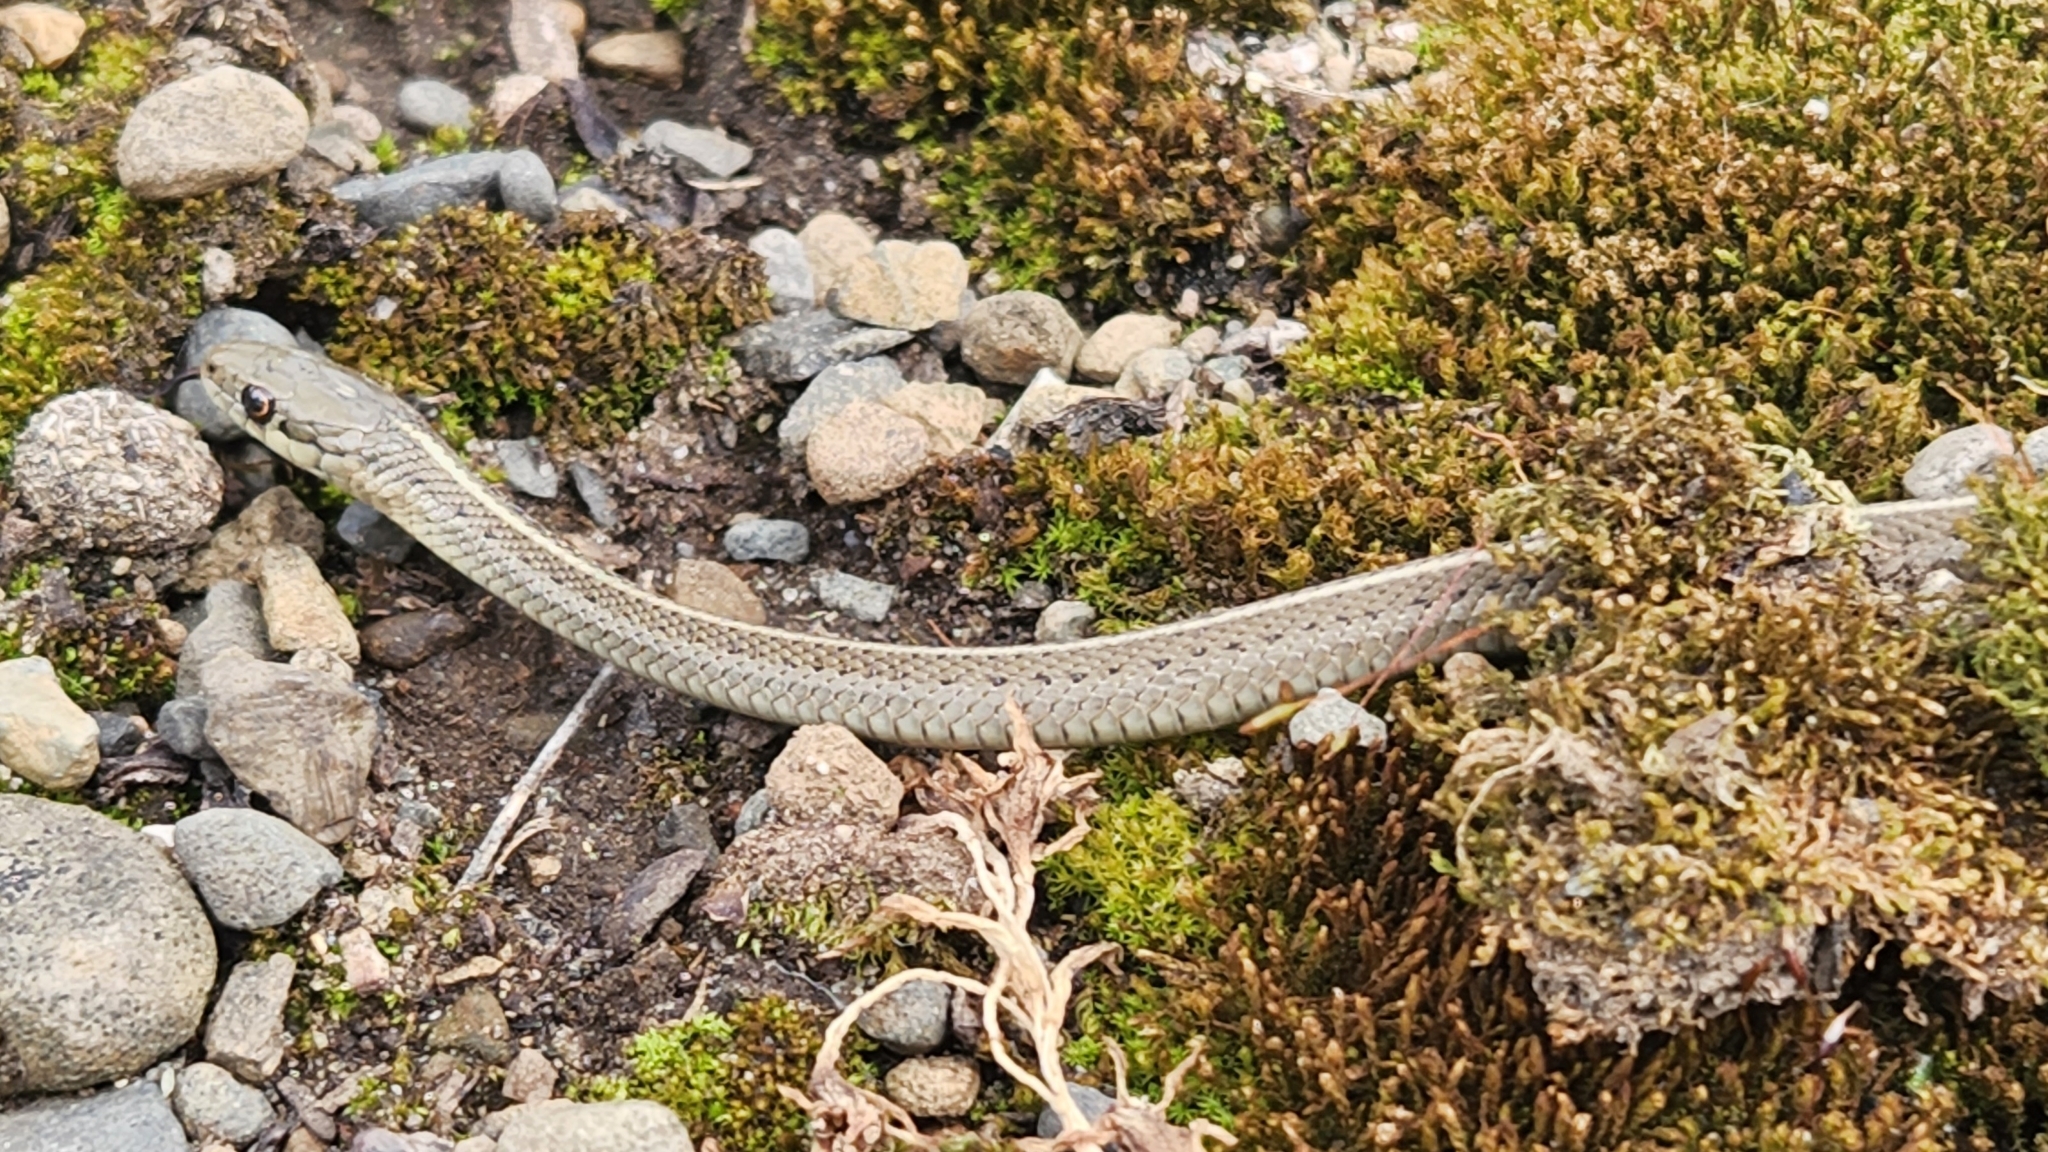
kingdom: Animalia
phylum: Chordata
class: Squamata
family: Colubridae
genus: Thamnophis
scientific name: Thamnophis ordinoides
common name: Northwestern garter snake
